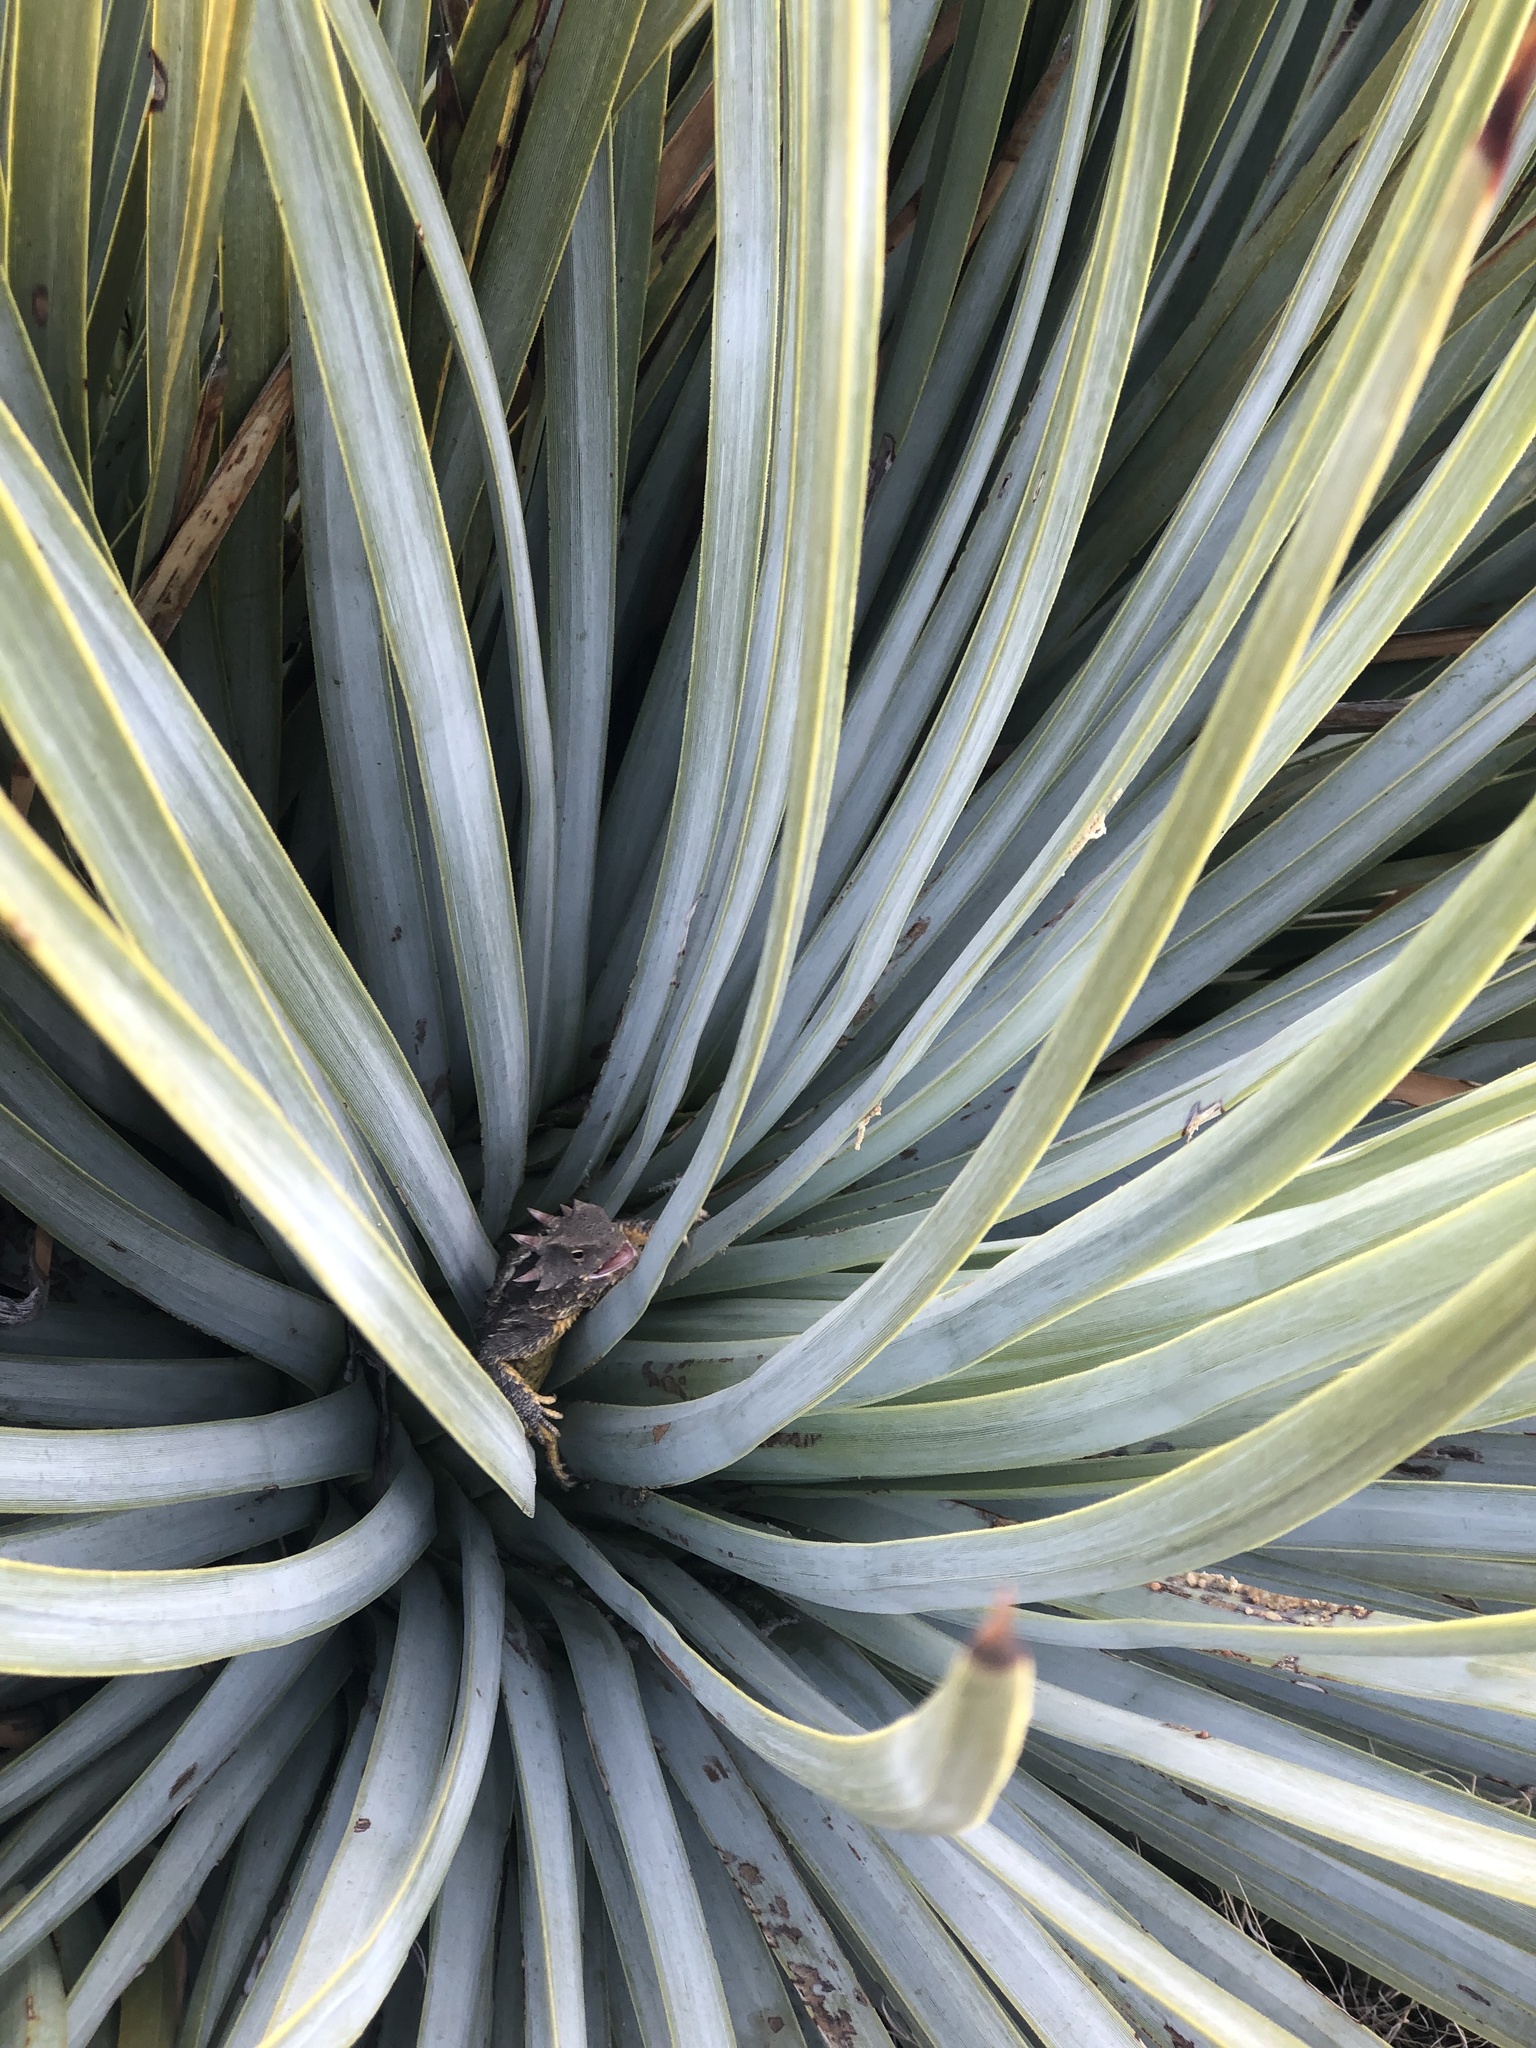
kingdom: Animalia
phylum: Chordata
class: Squamata
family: Phrynosomatidae
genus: Phrynosoma
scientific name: Phrynosoma blainvillii
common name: San diego horned lizard
